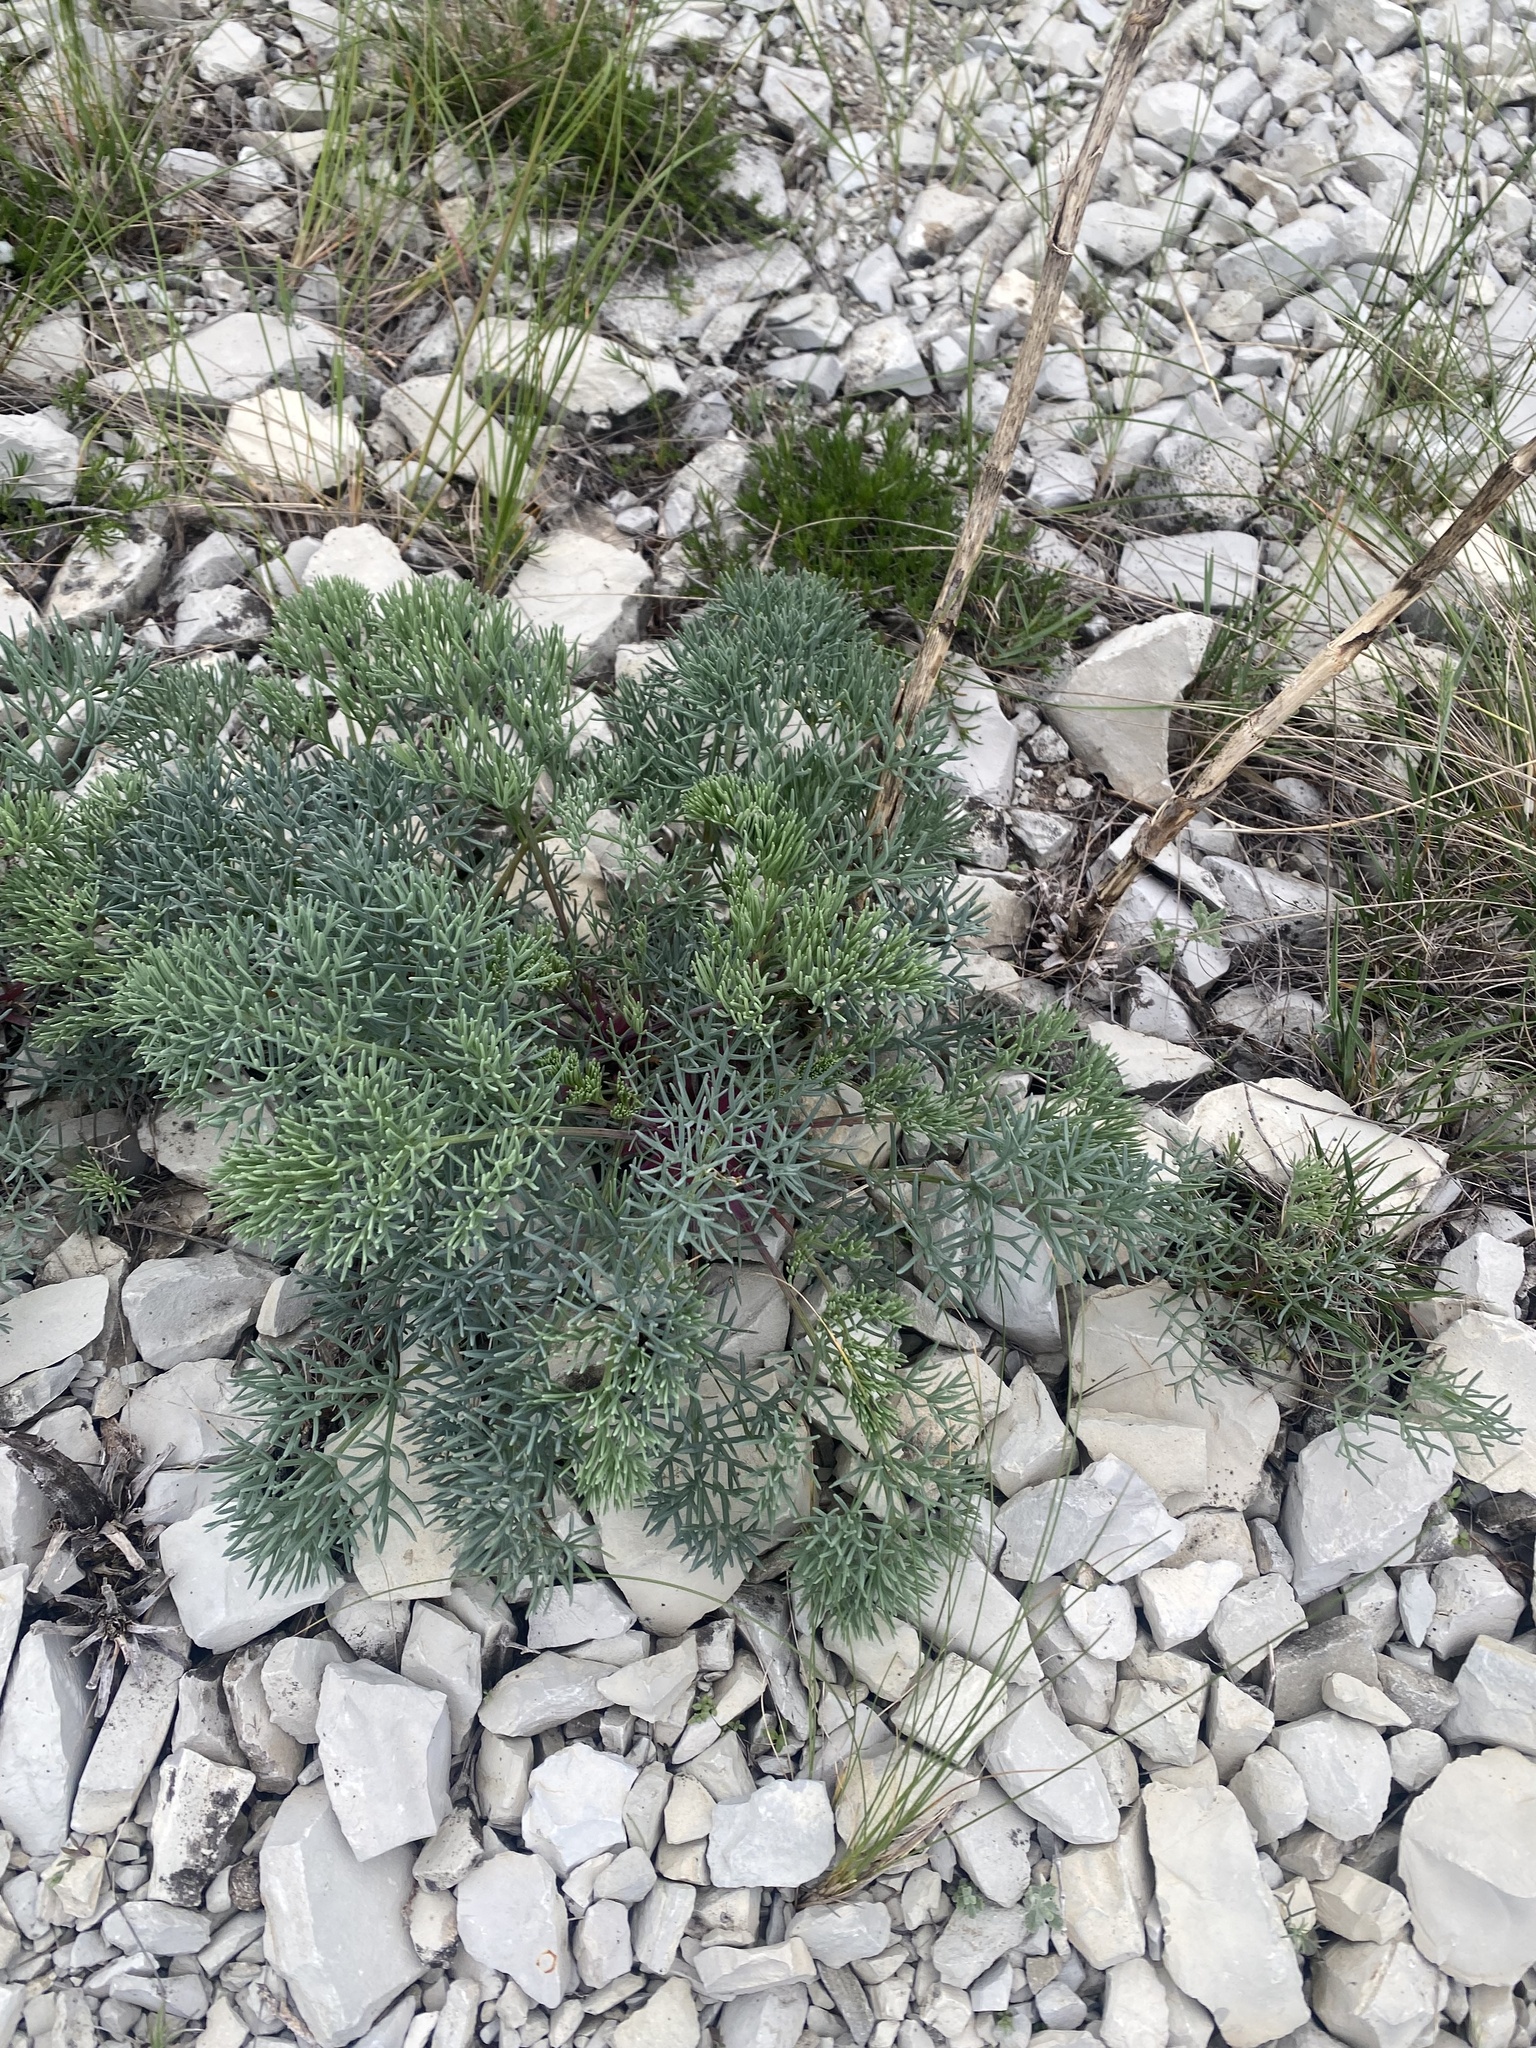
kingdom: Plantae
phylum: Tracheophyta
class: Magnoliopsida
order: Apiales
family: Apiaceae
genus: Seseli
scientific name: Seseli ponticum
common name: Pontic seseli
